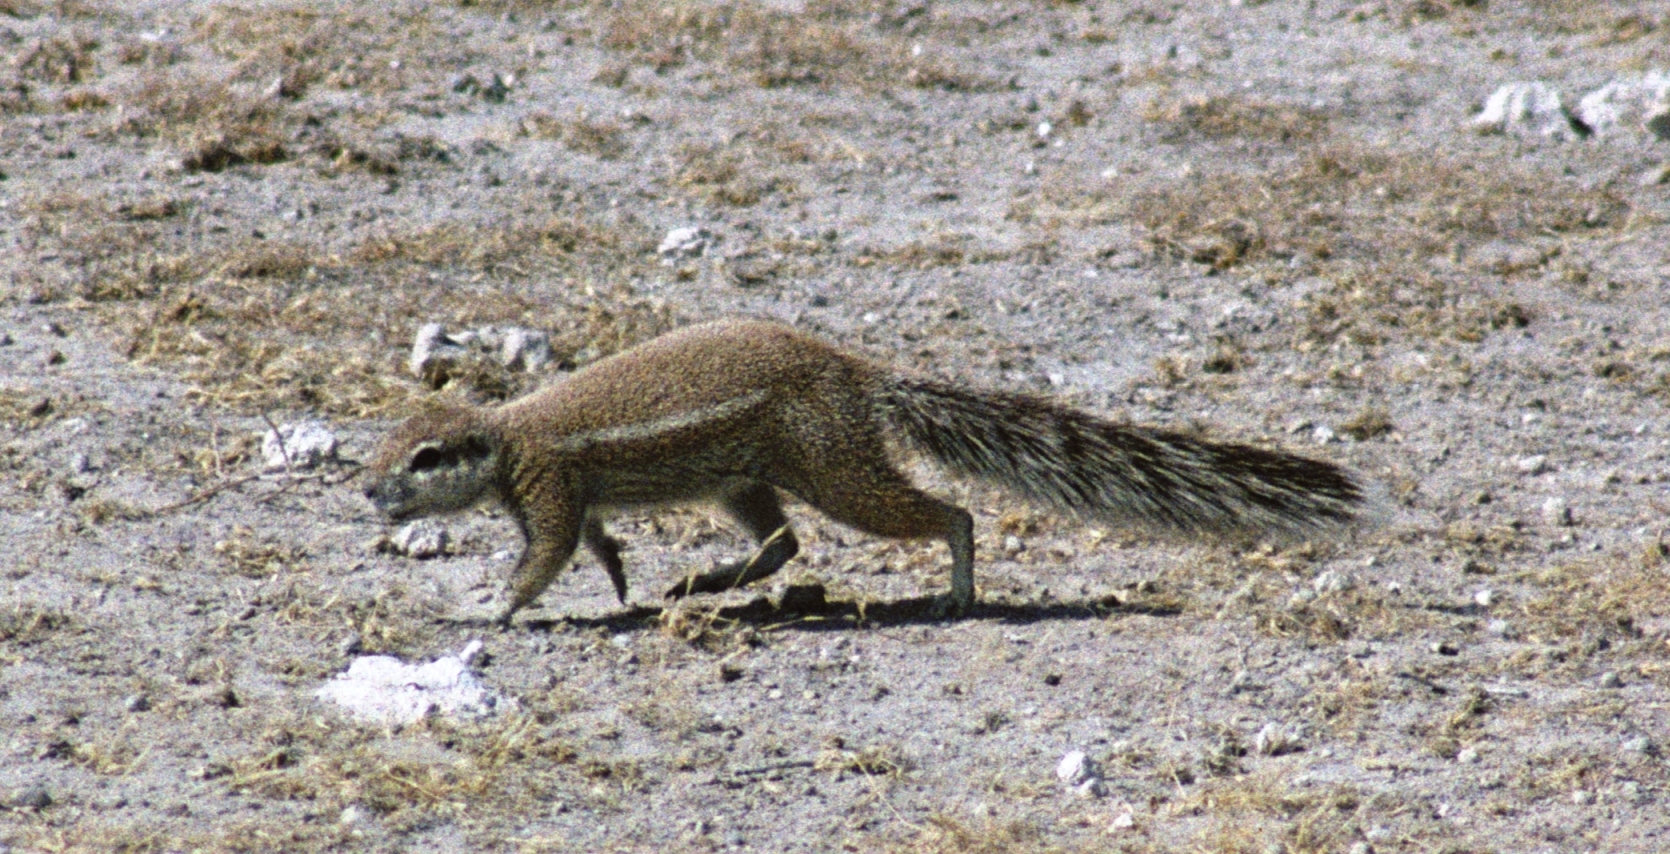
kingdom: Animalia
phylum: Chordata
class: Mammalia
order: Rodentia
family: Sciuridae
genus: Xerus
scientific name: Xerus inauris
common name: South african ground squirrel
